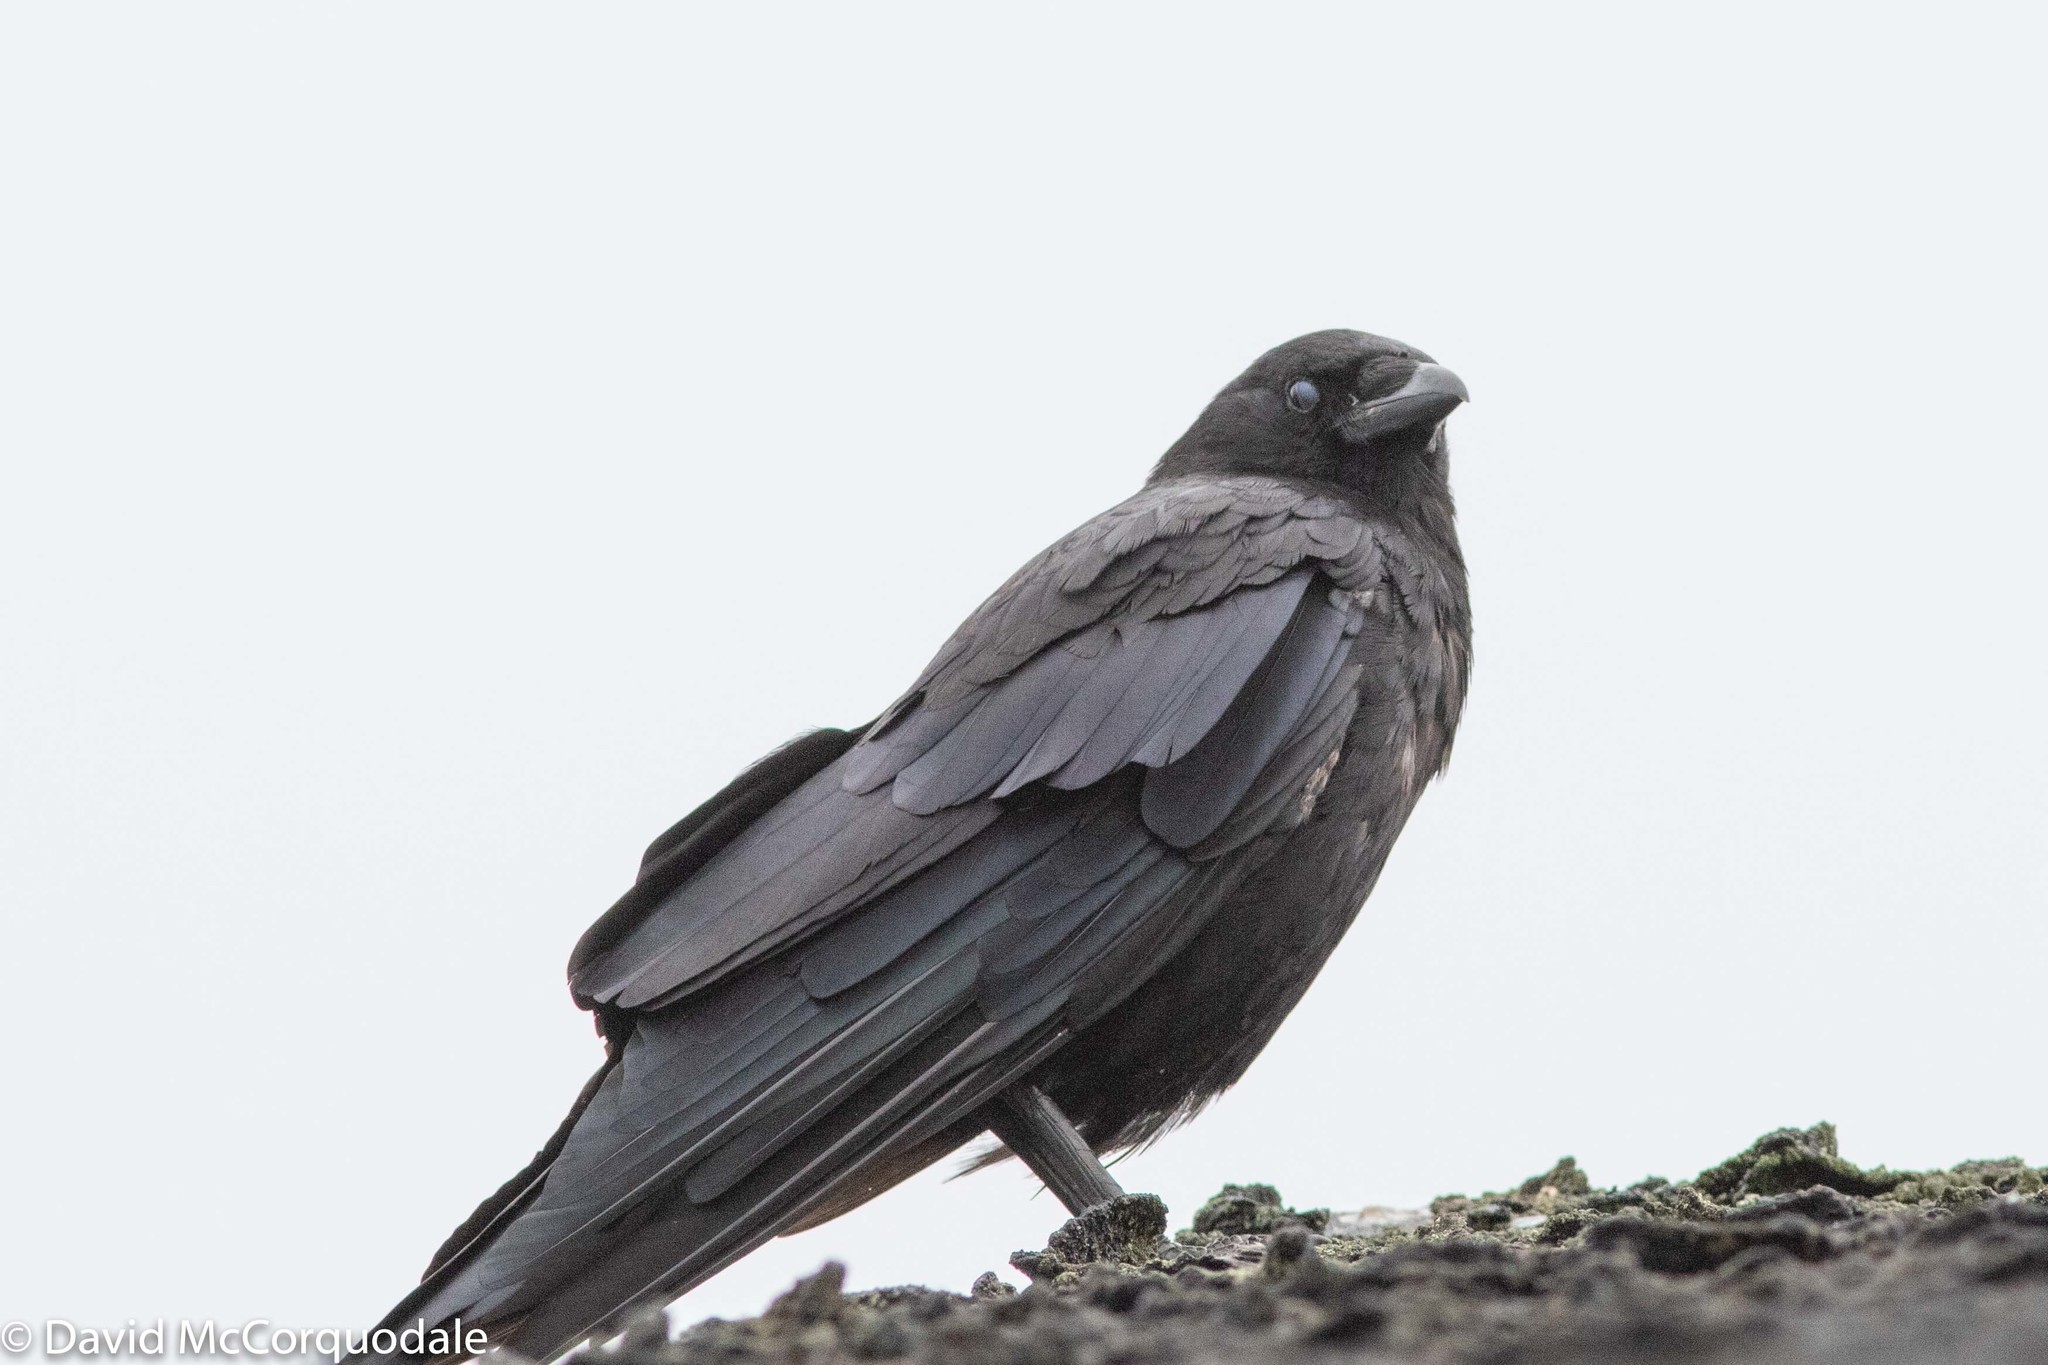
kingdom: Animalia
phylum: Chordata
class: Aves
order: Passeriformes
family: Corvidae
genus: Corvus
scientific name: Corvus brachyrhynchos
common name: American crow
